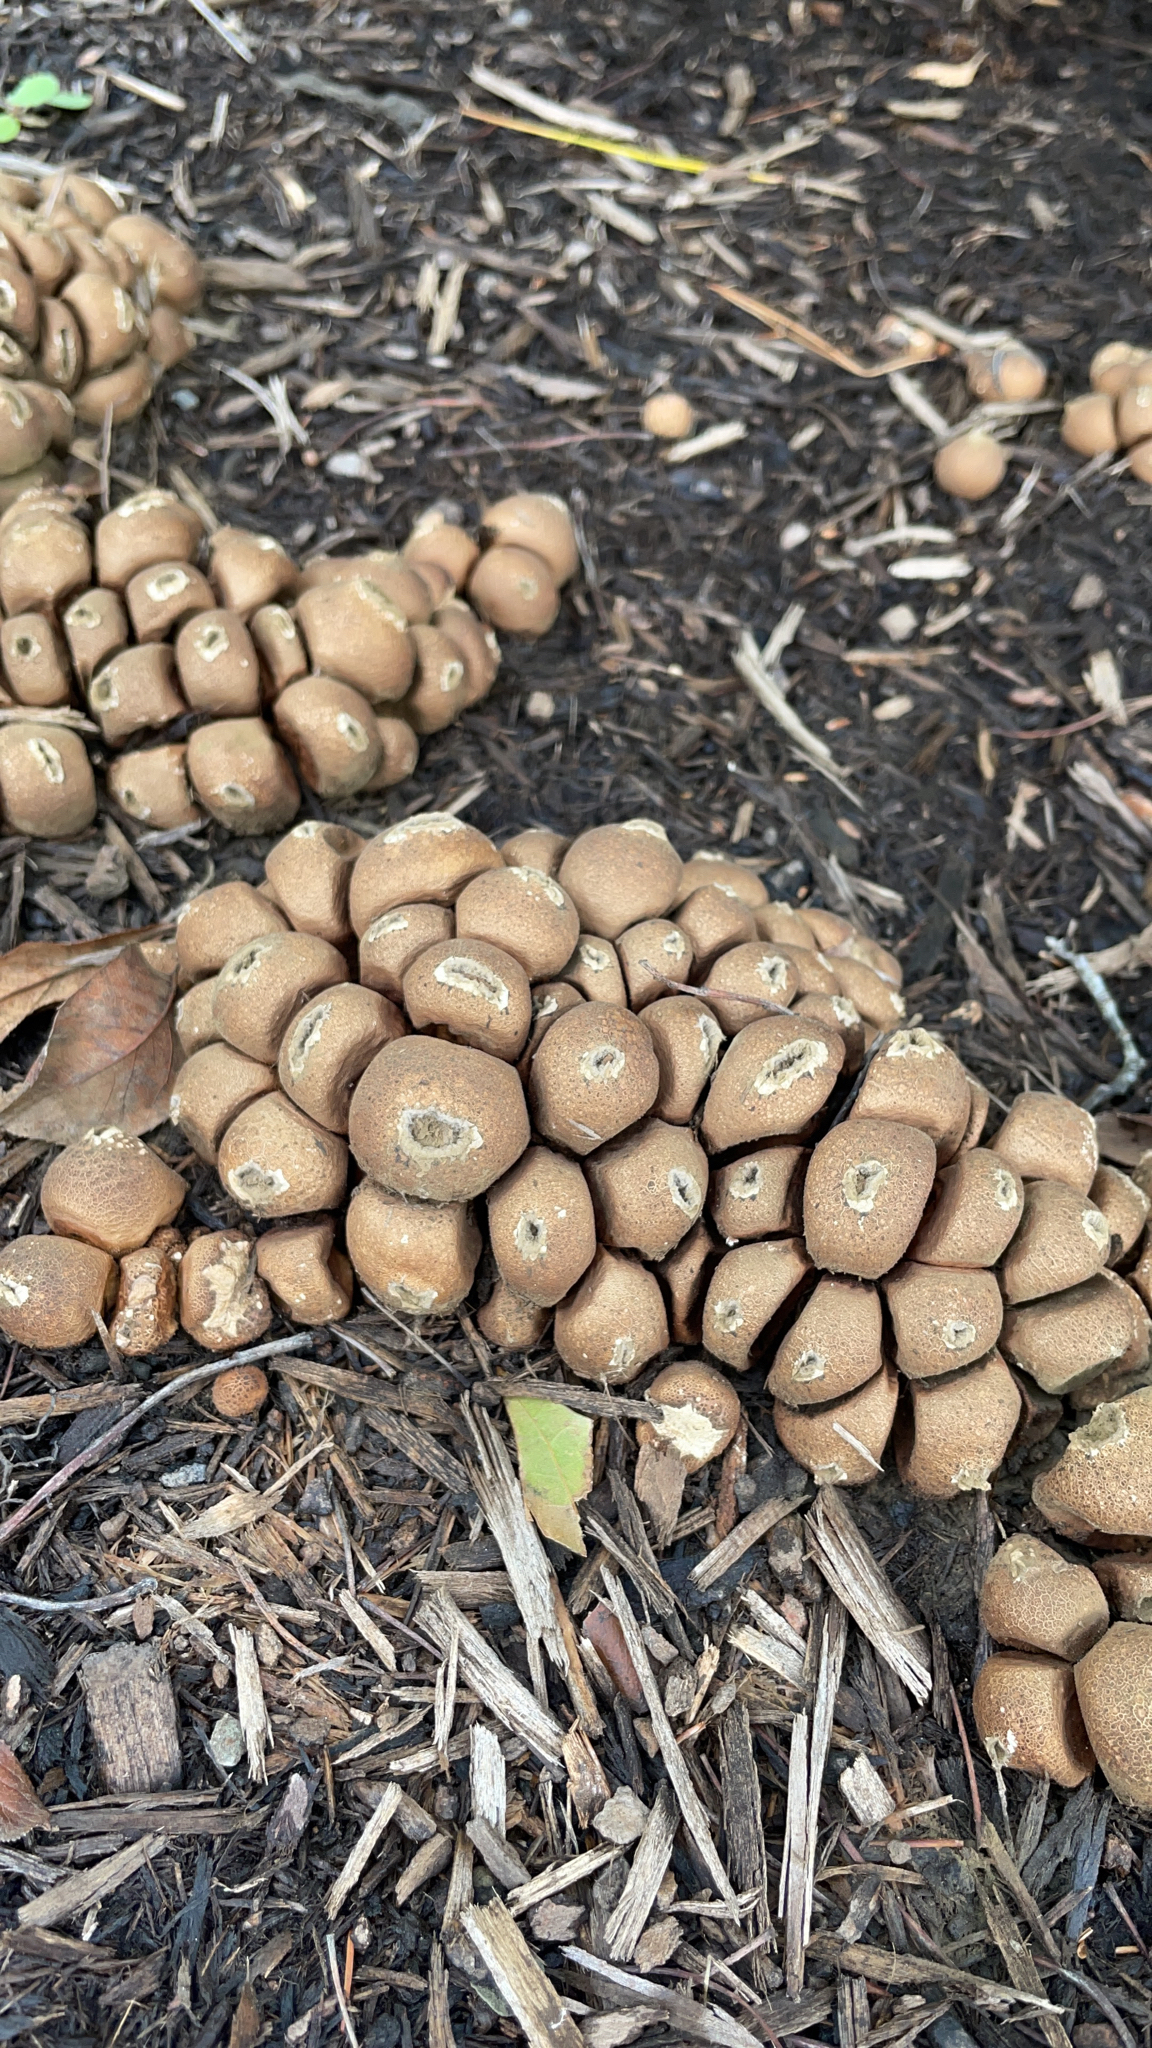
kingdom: Fungi
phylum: Basidiomycota
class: Agaricomycetes
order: Agaricales
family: Lycoperdaceae
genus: Apioperdon
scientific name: Apioperdon pyriforme
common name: Pear-shaped puffball
